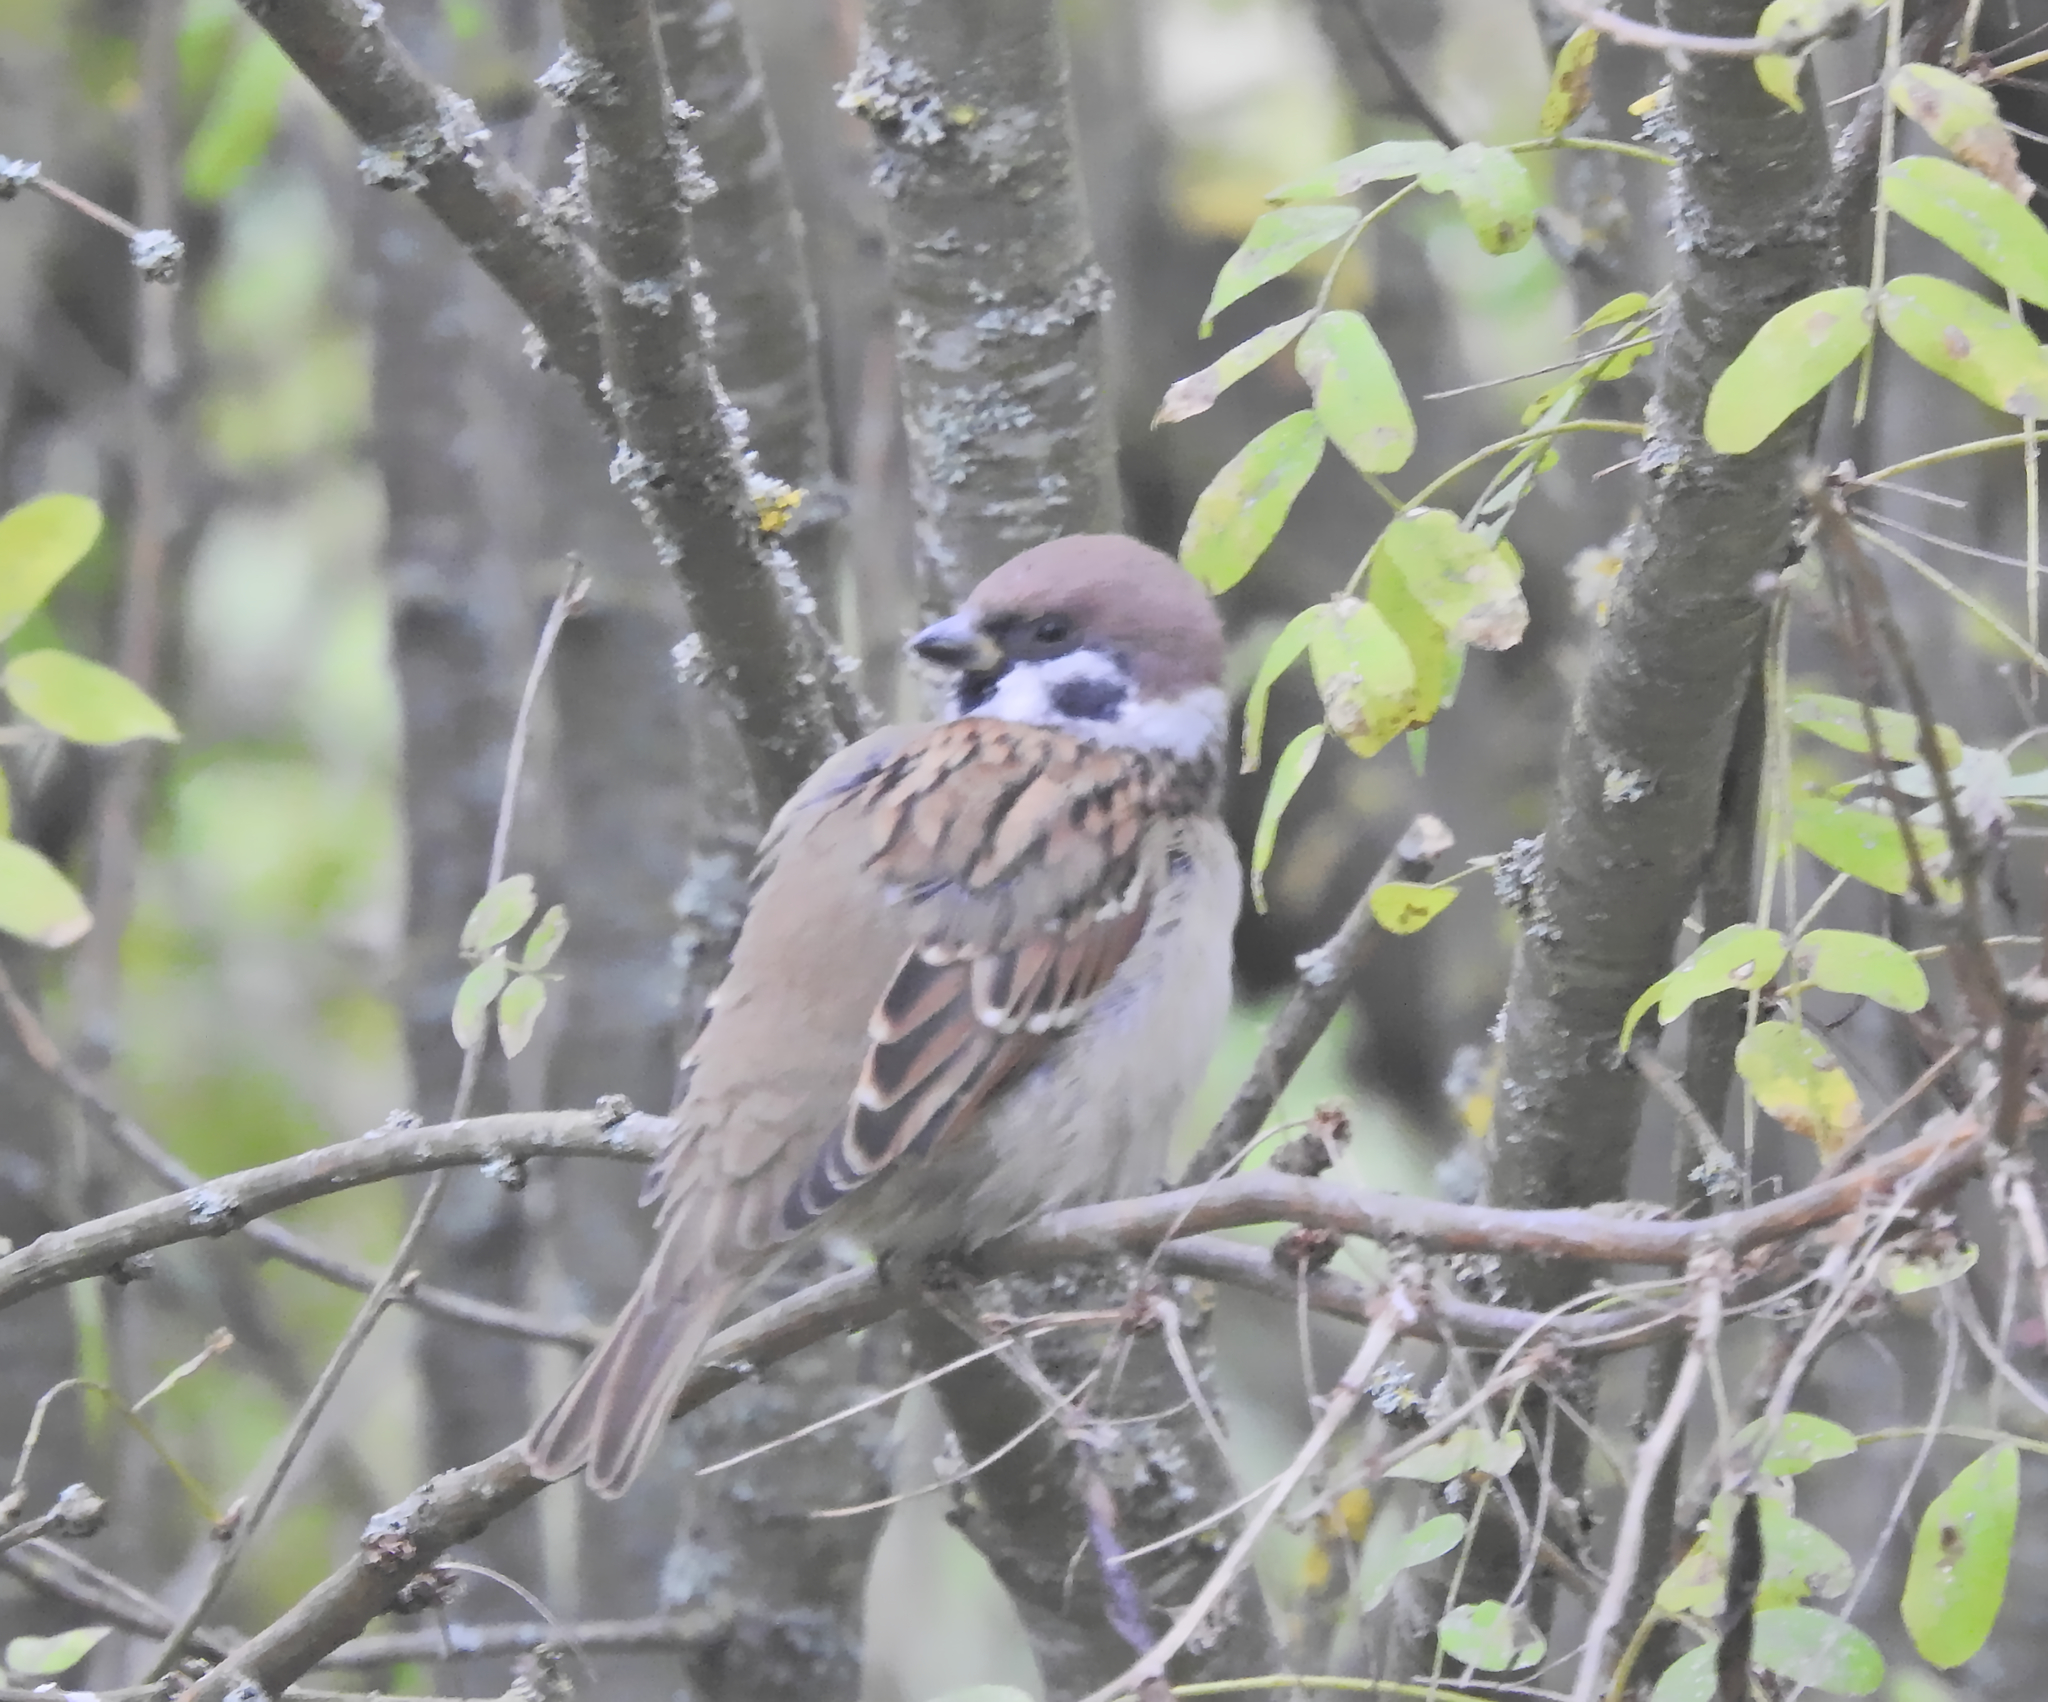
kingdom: Animalia
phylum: Chordata
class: Aves
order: Passeriformes
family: Passeridae
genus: Passer
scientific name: Passer montanus
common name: Eurasian tree sparrow
